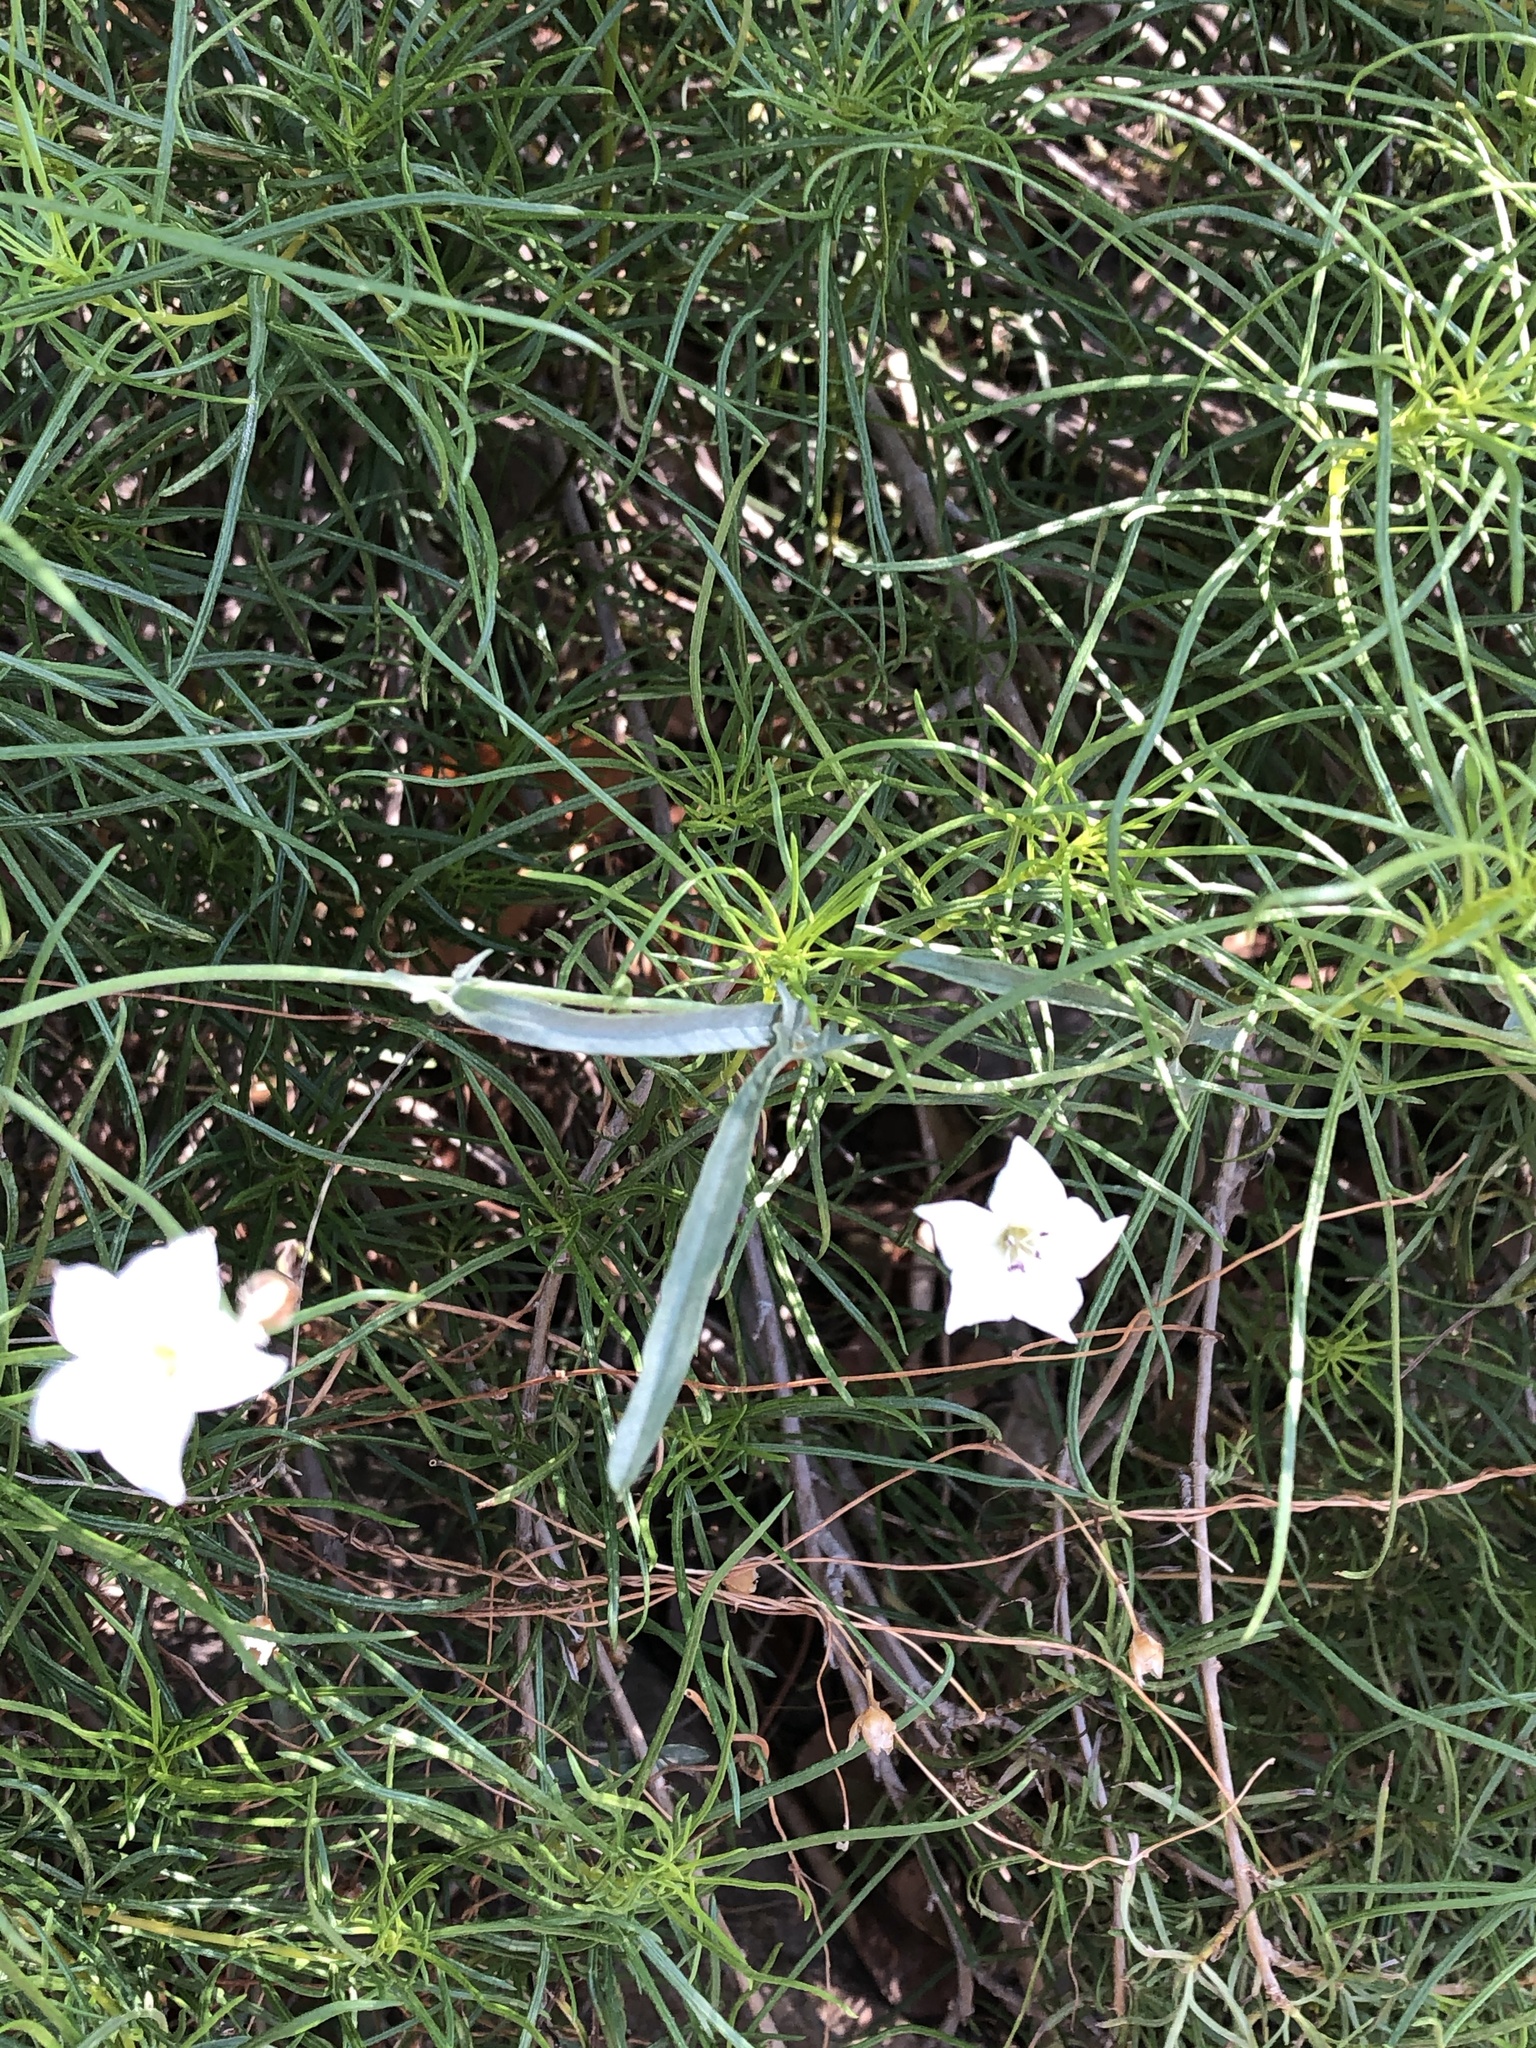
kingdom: Plantae
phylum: Tracheophyta
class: Magnoliopsida
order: Solanales
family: Convolvulaceae
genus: Convolvulus
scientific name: Convolvulus equitans
